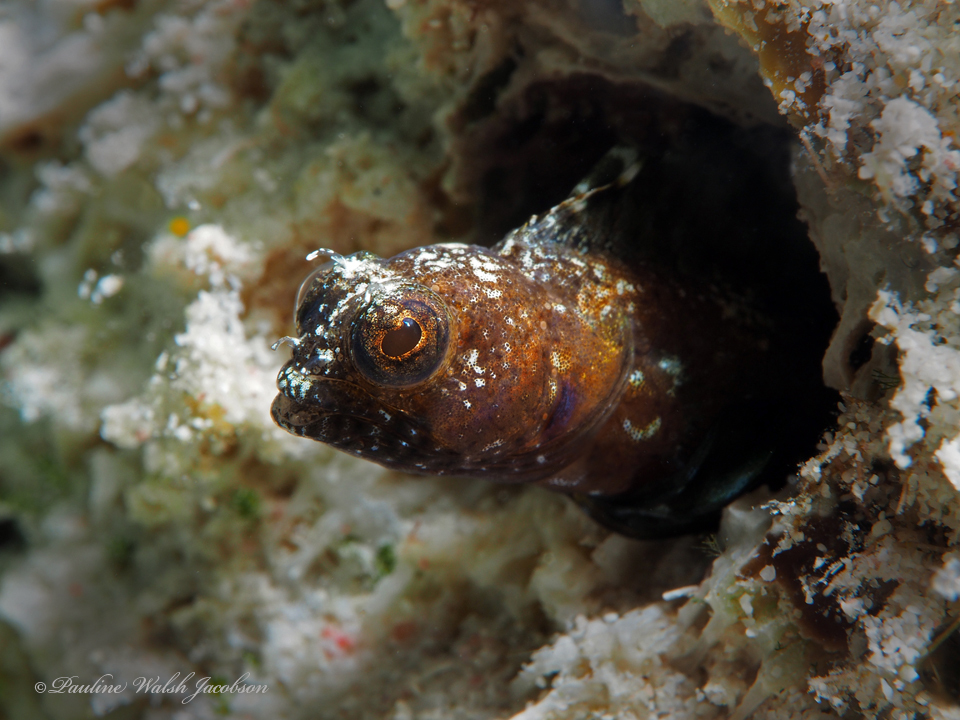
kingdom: Animalia
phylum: Chordata
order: Perciformes
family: Chaenopsidae
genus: Emblemaria
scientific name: Emblemaria pandionis
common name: Sailfin blenny
